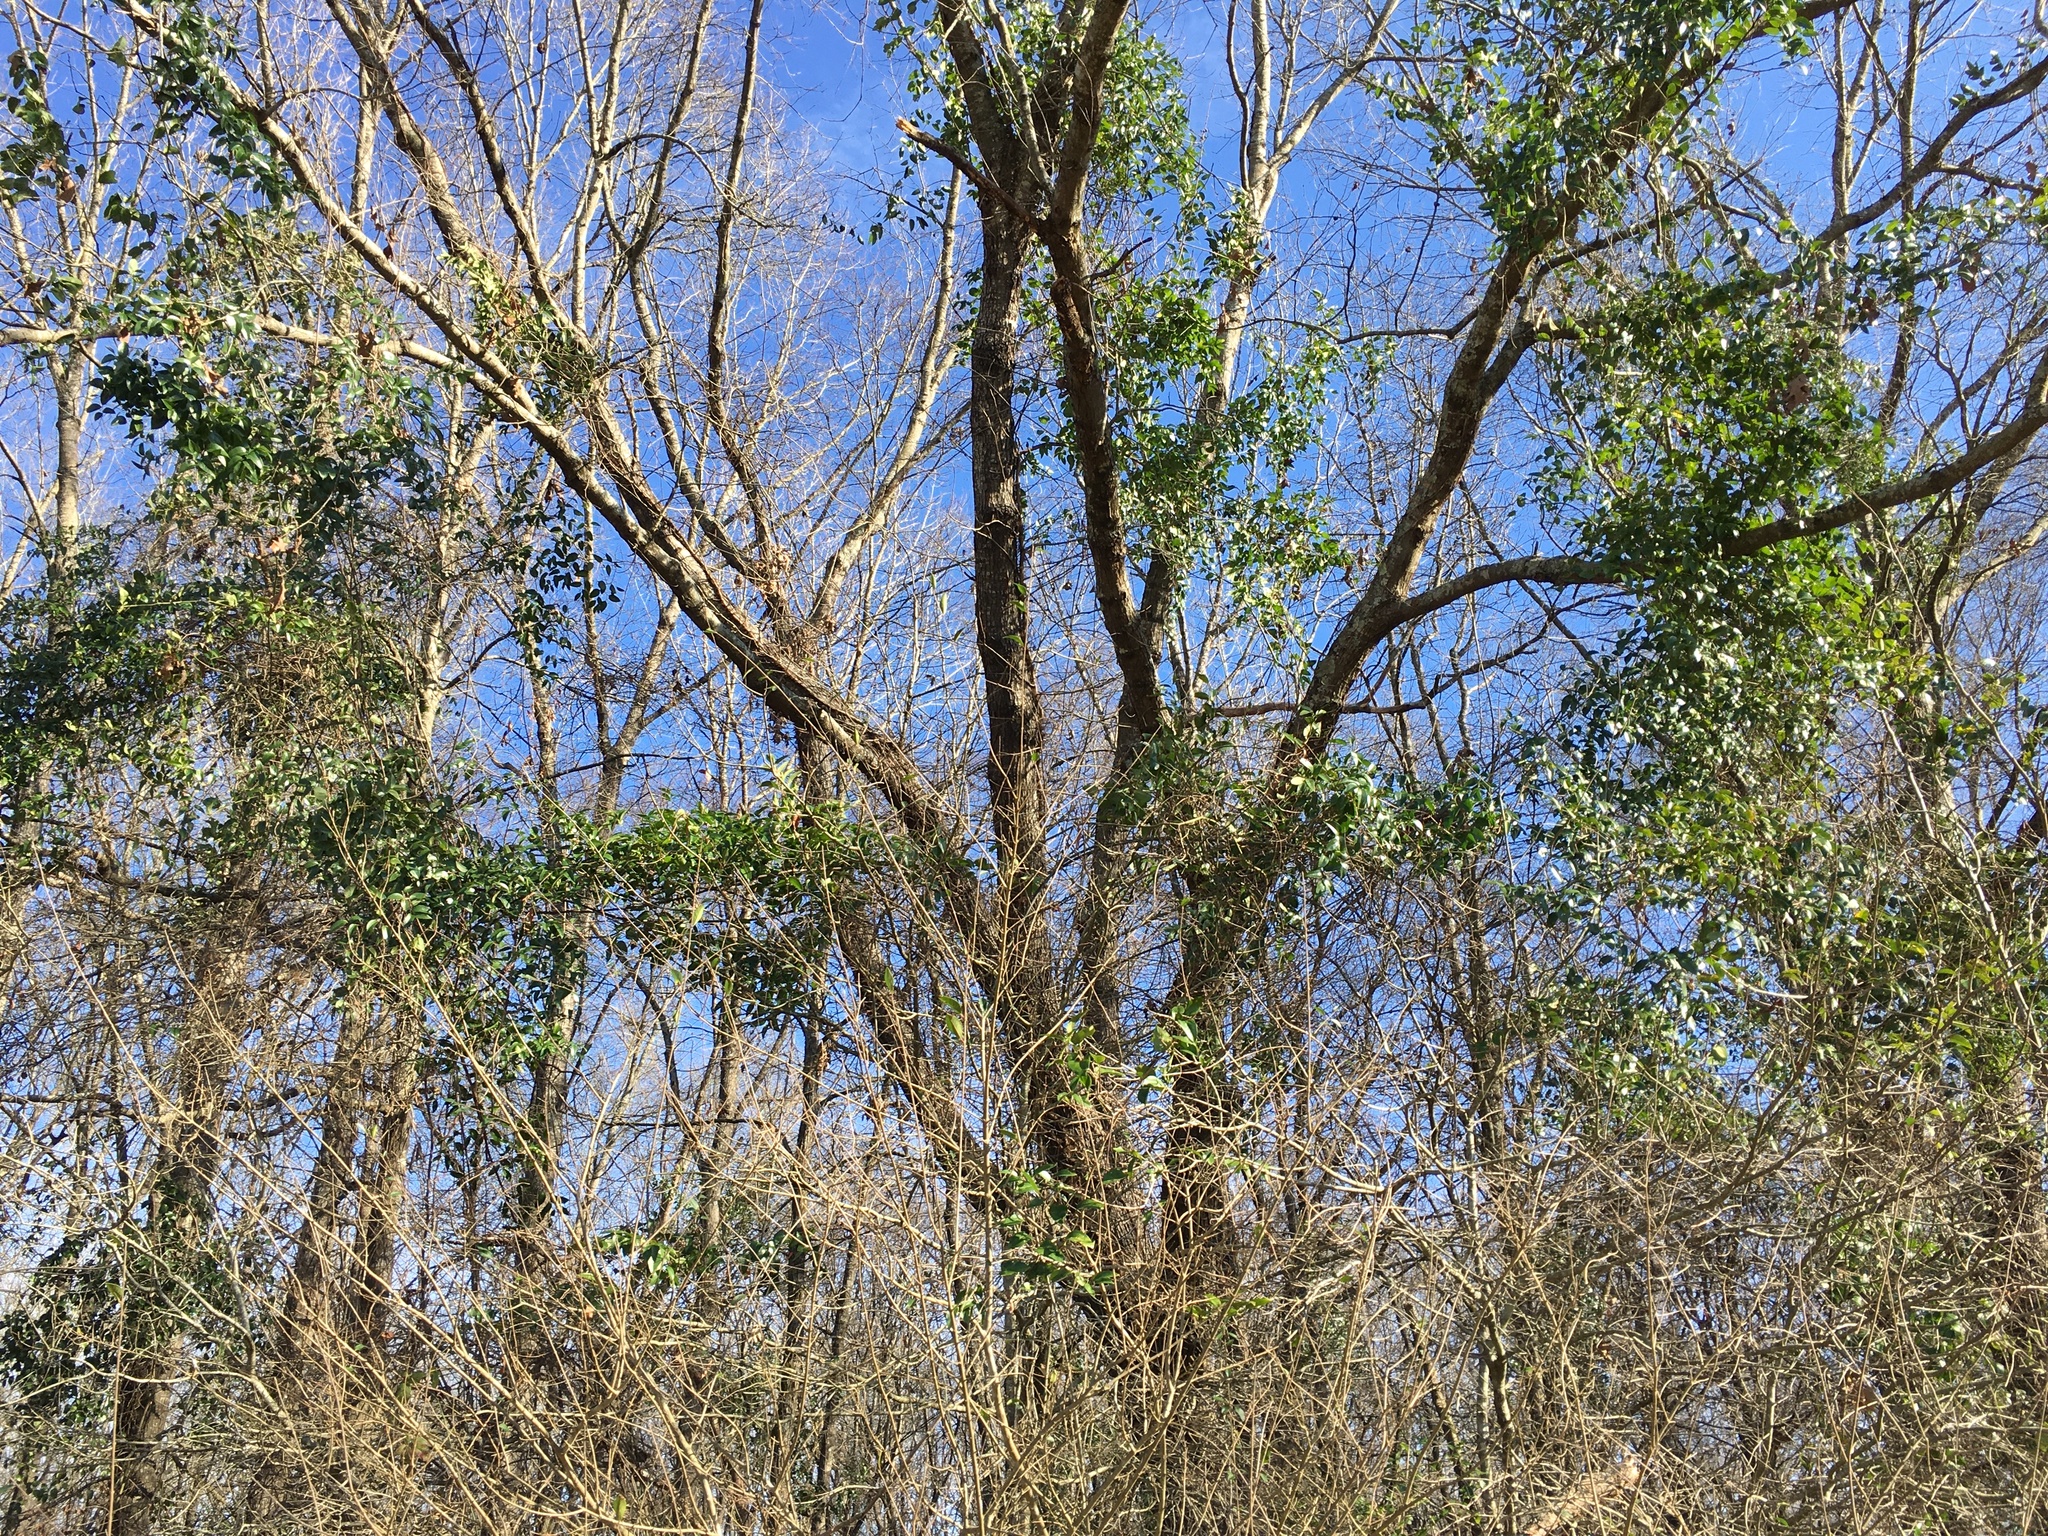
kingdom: Plantae
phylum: Tracheophyta
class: Liliopsida
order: Liliales
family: Smilacaceae
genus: Smilax
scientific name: Smilax maritima
